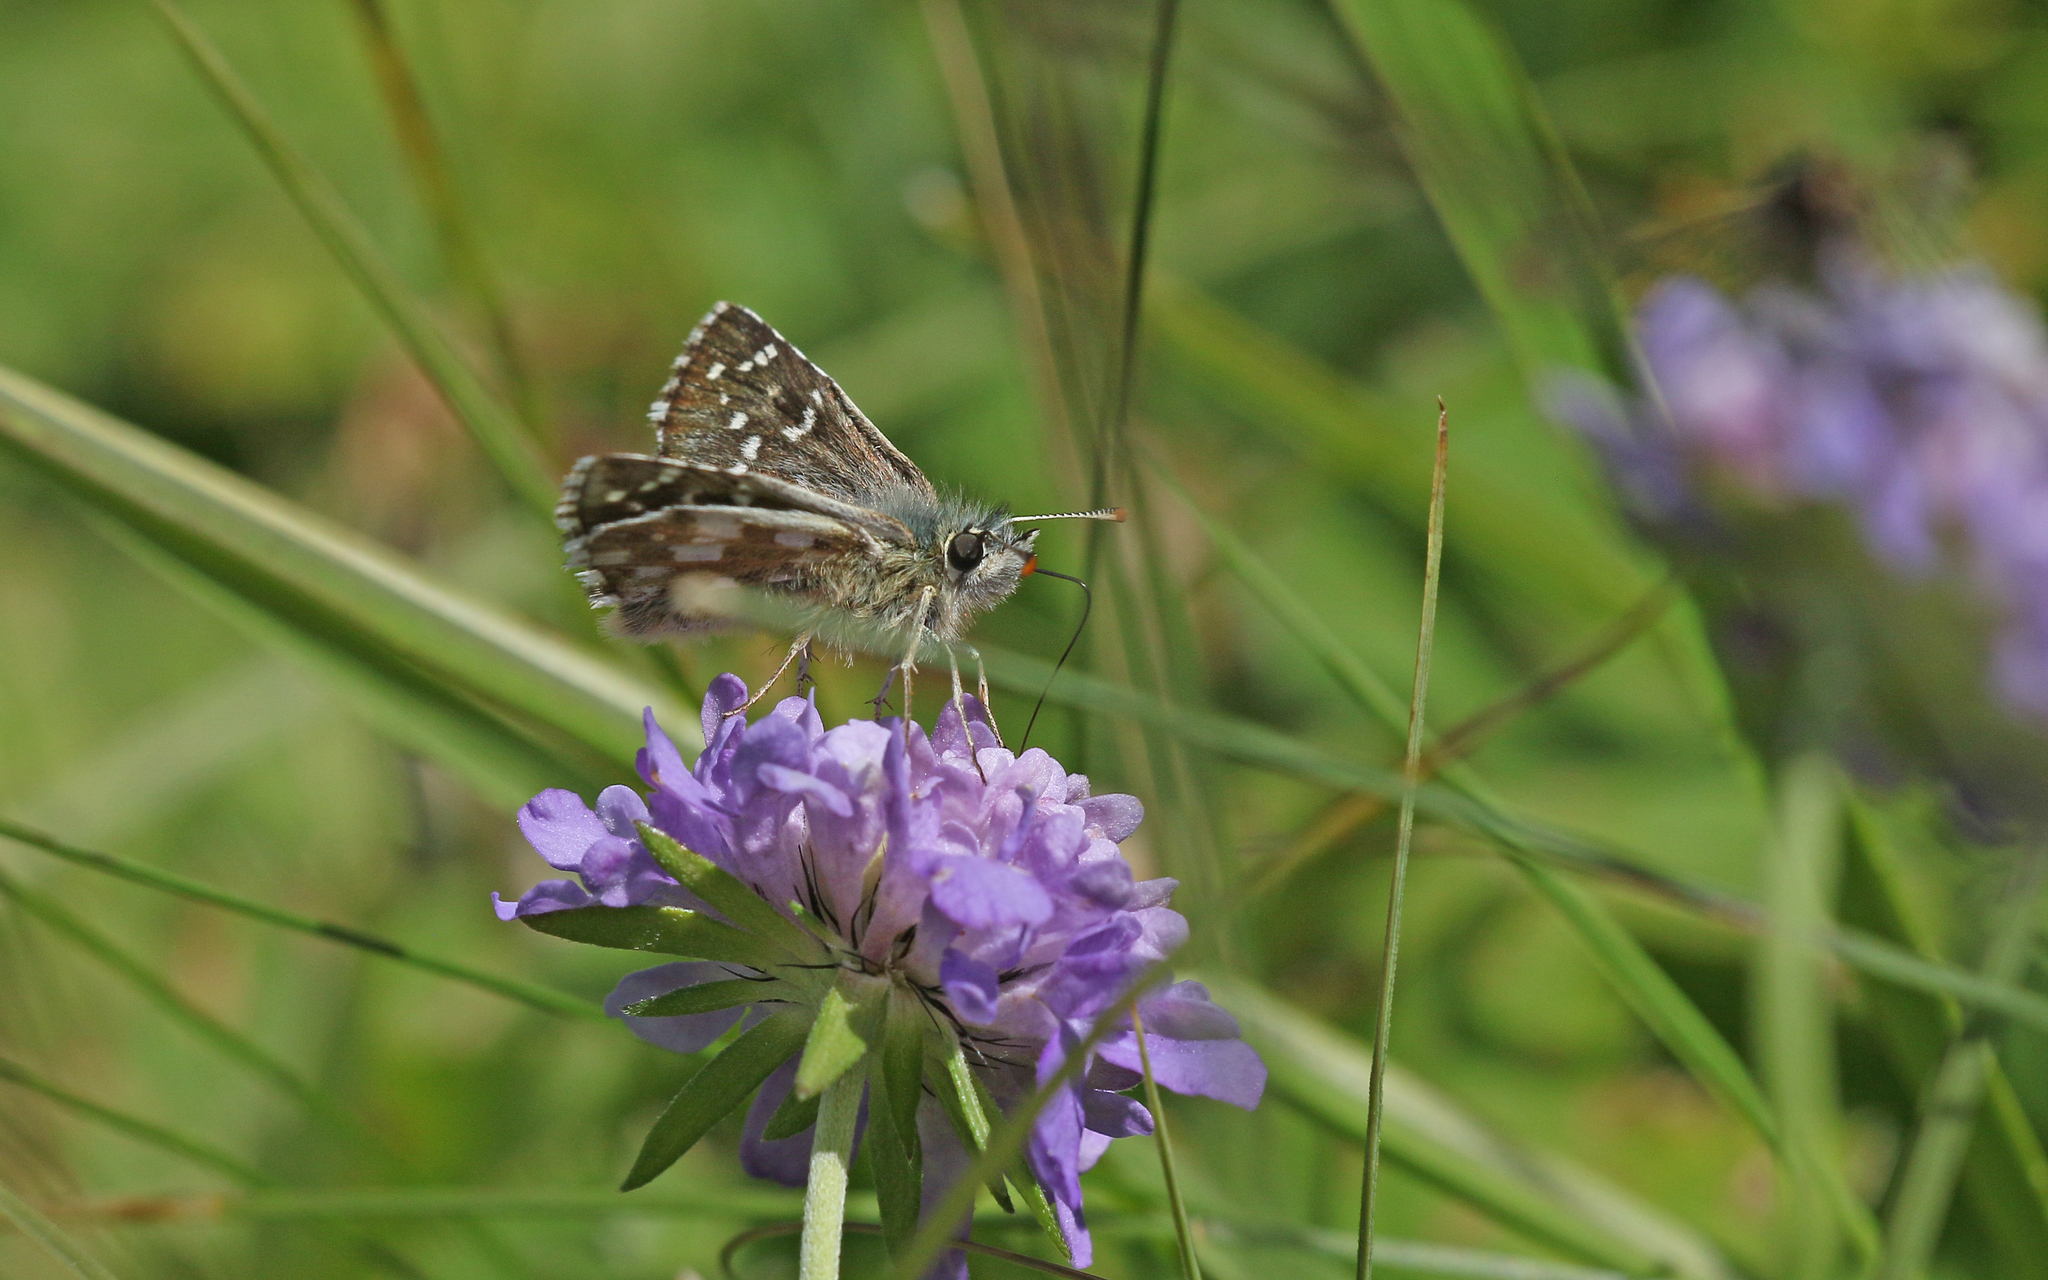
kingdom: Animalia
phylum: Arthropoda
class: Insecta
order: Lepidoptera
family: Hesperiidae
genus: Pyrgus
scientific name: Pyrgus serratulae
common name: Olive skipper
